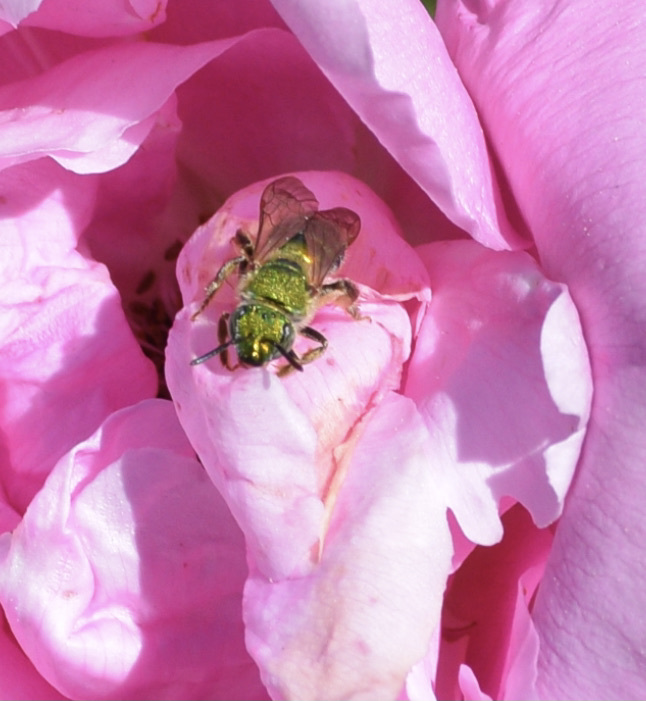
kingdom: Animalia
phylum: Arthropoda
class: Insecta
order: Hymenoptera
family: Halictidae
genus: Agapostemon
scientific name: Agapostemon sericeus
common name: Silky striped sweat bee
